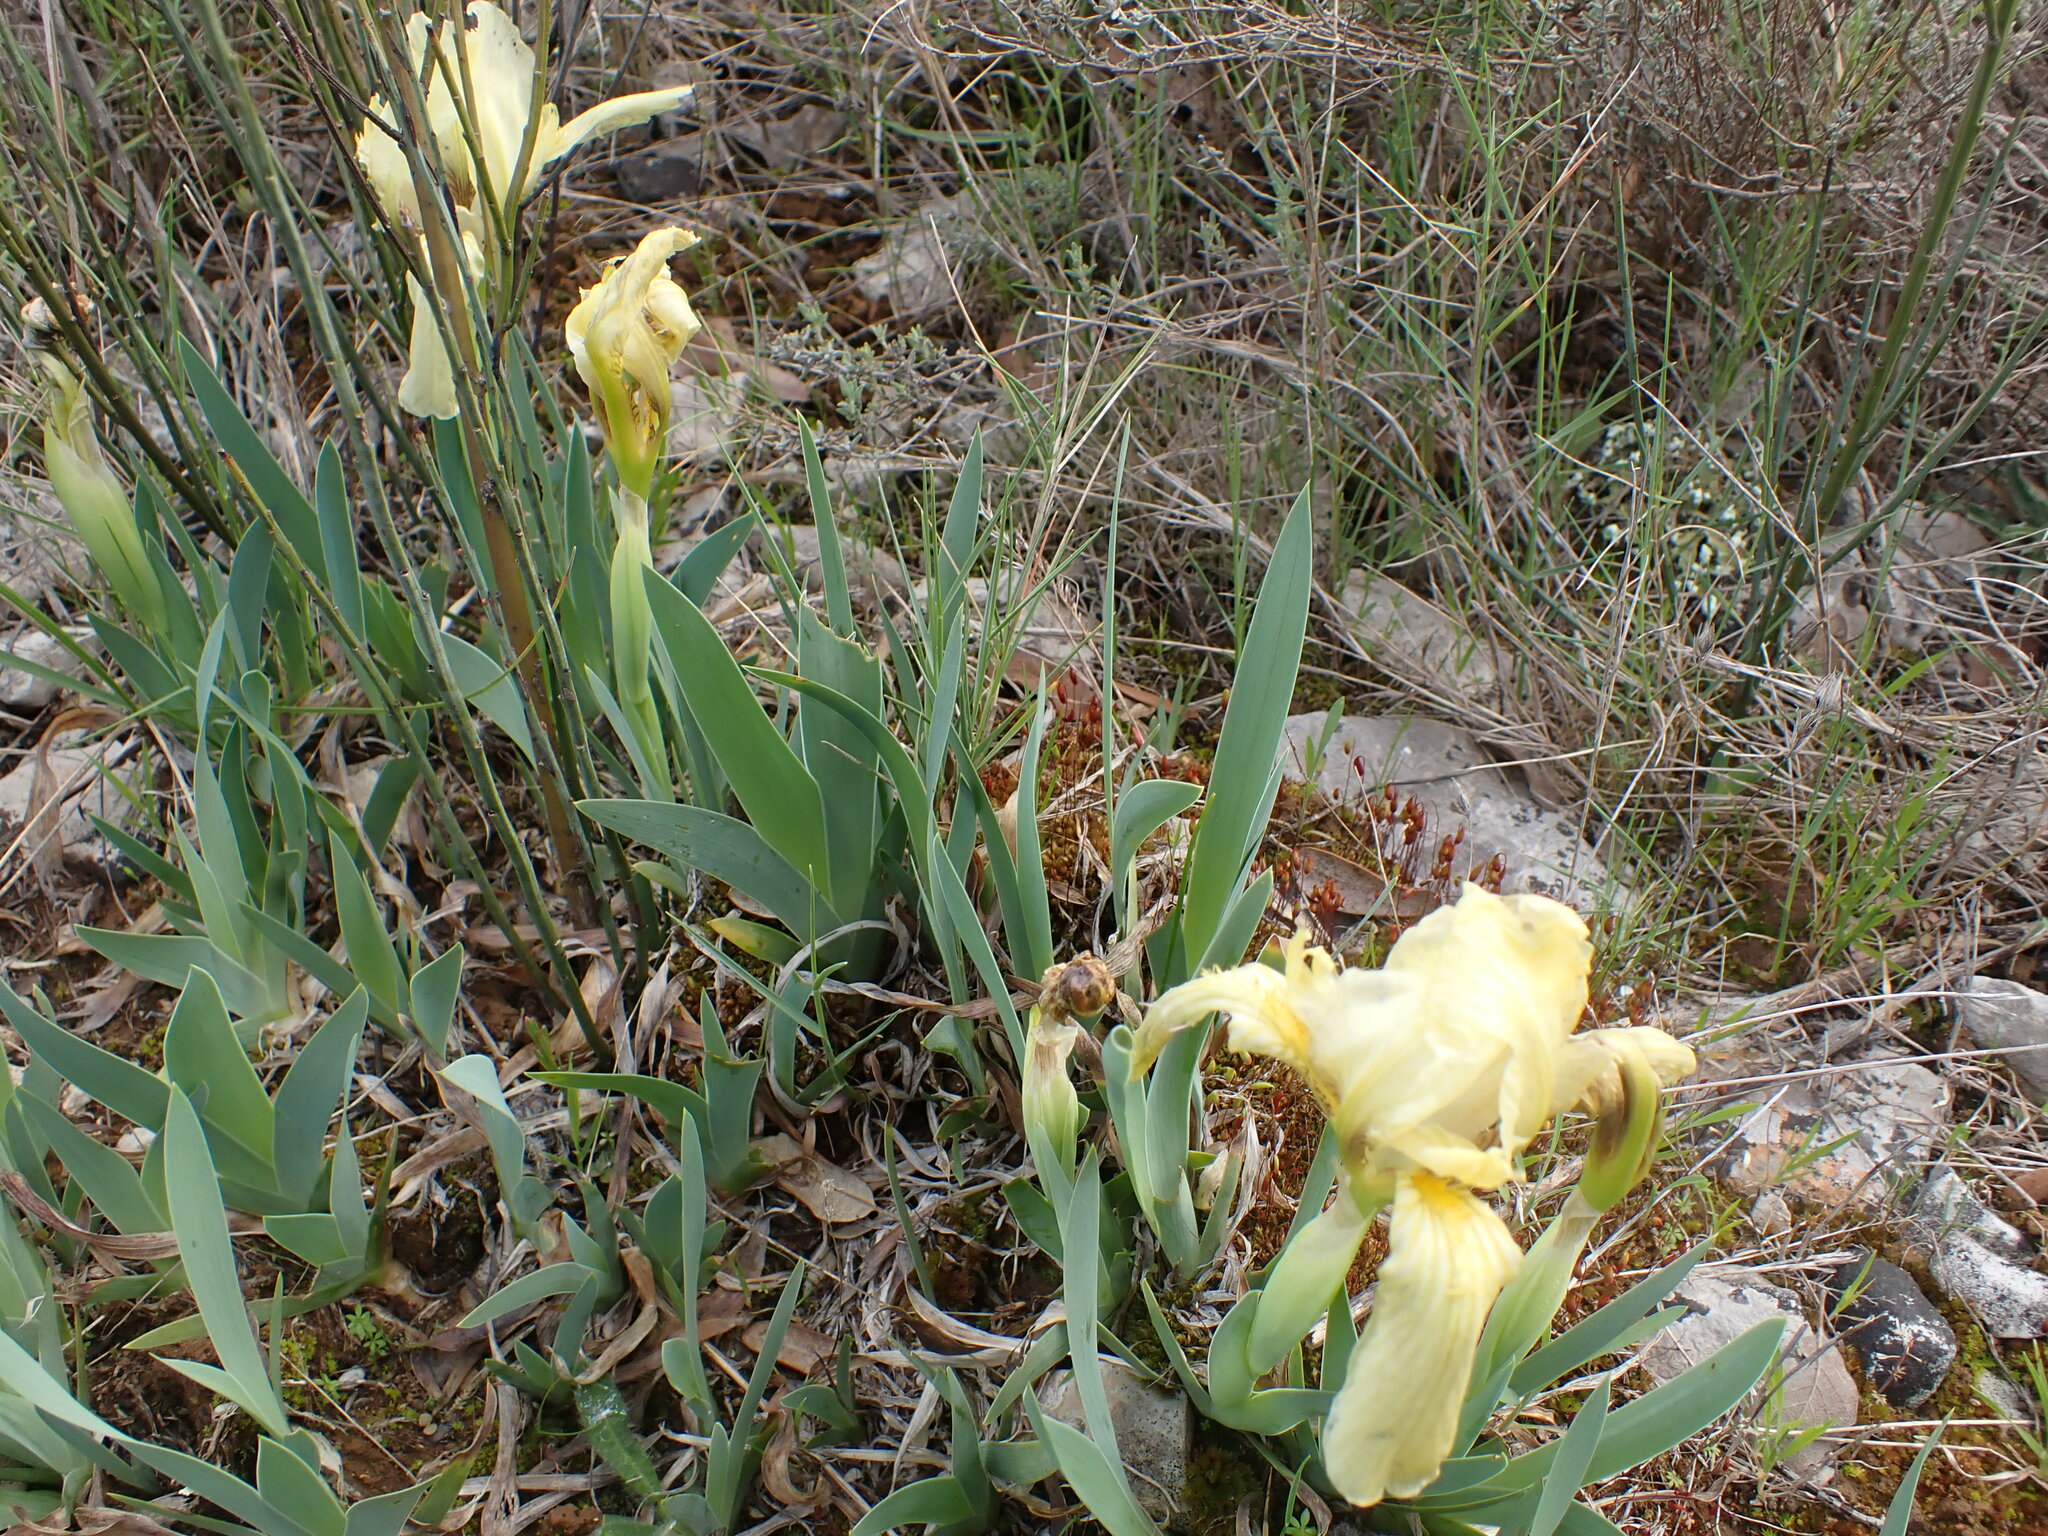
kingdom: Plantae
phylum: Tracheophyta
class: Liliopsida
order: Asparagales
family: Iridaceae
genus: Iris
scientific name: Iris lutescens
